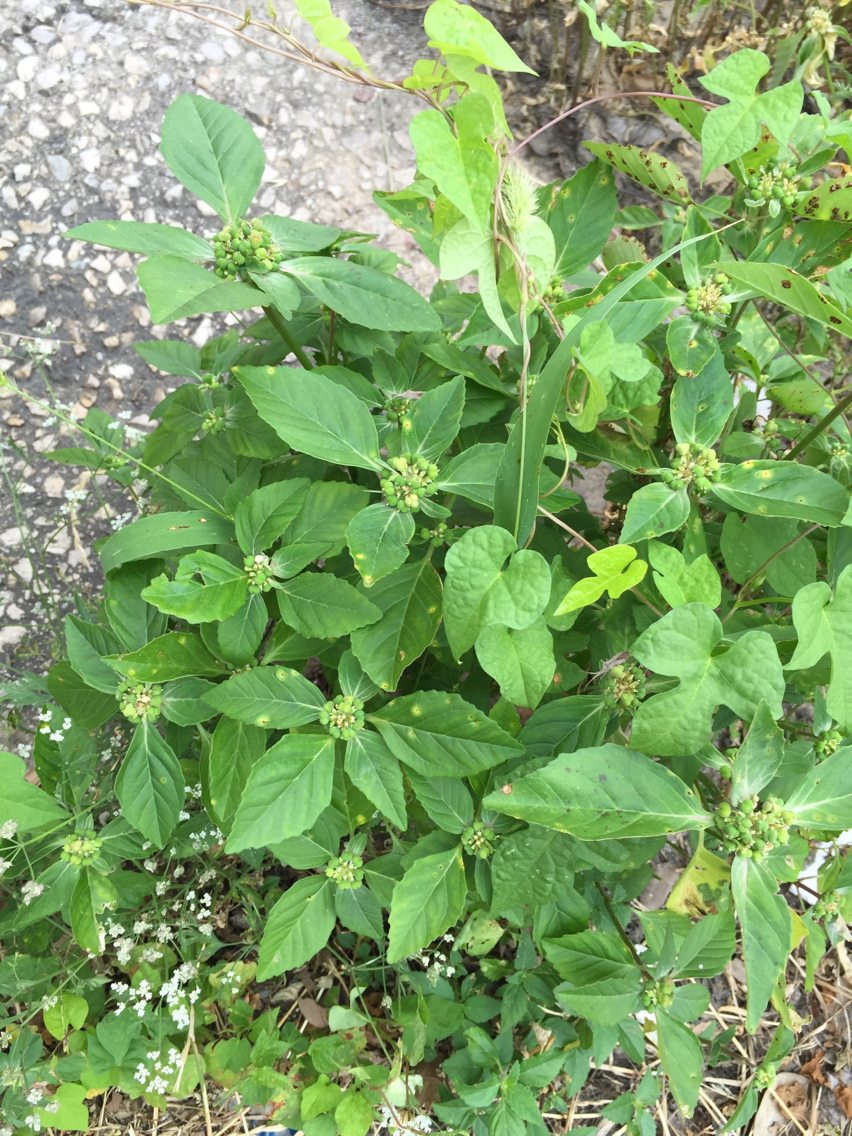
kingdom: Plantae
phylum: Tracheophyta
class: Magnoliopsida
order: Malpighiales
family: Euphorbiaceae
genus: Euphorbia
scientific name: Euphorbia dentata
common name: Dentate spurge
